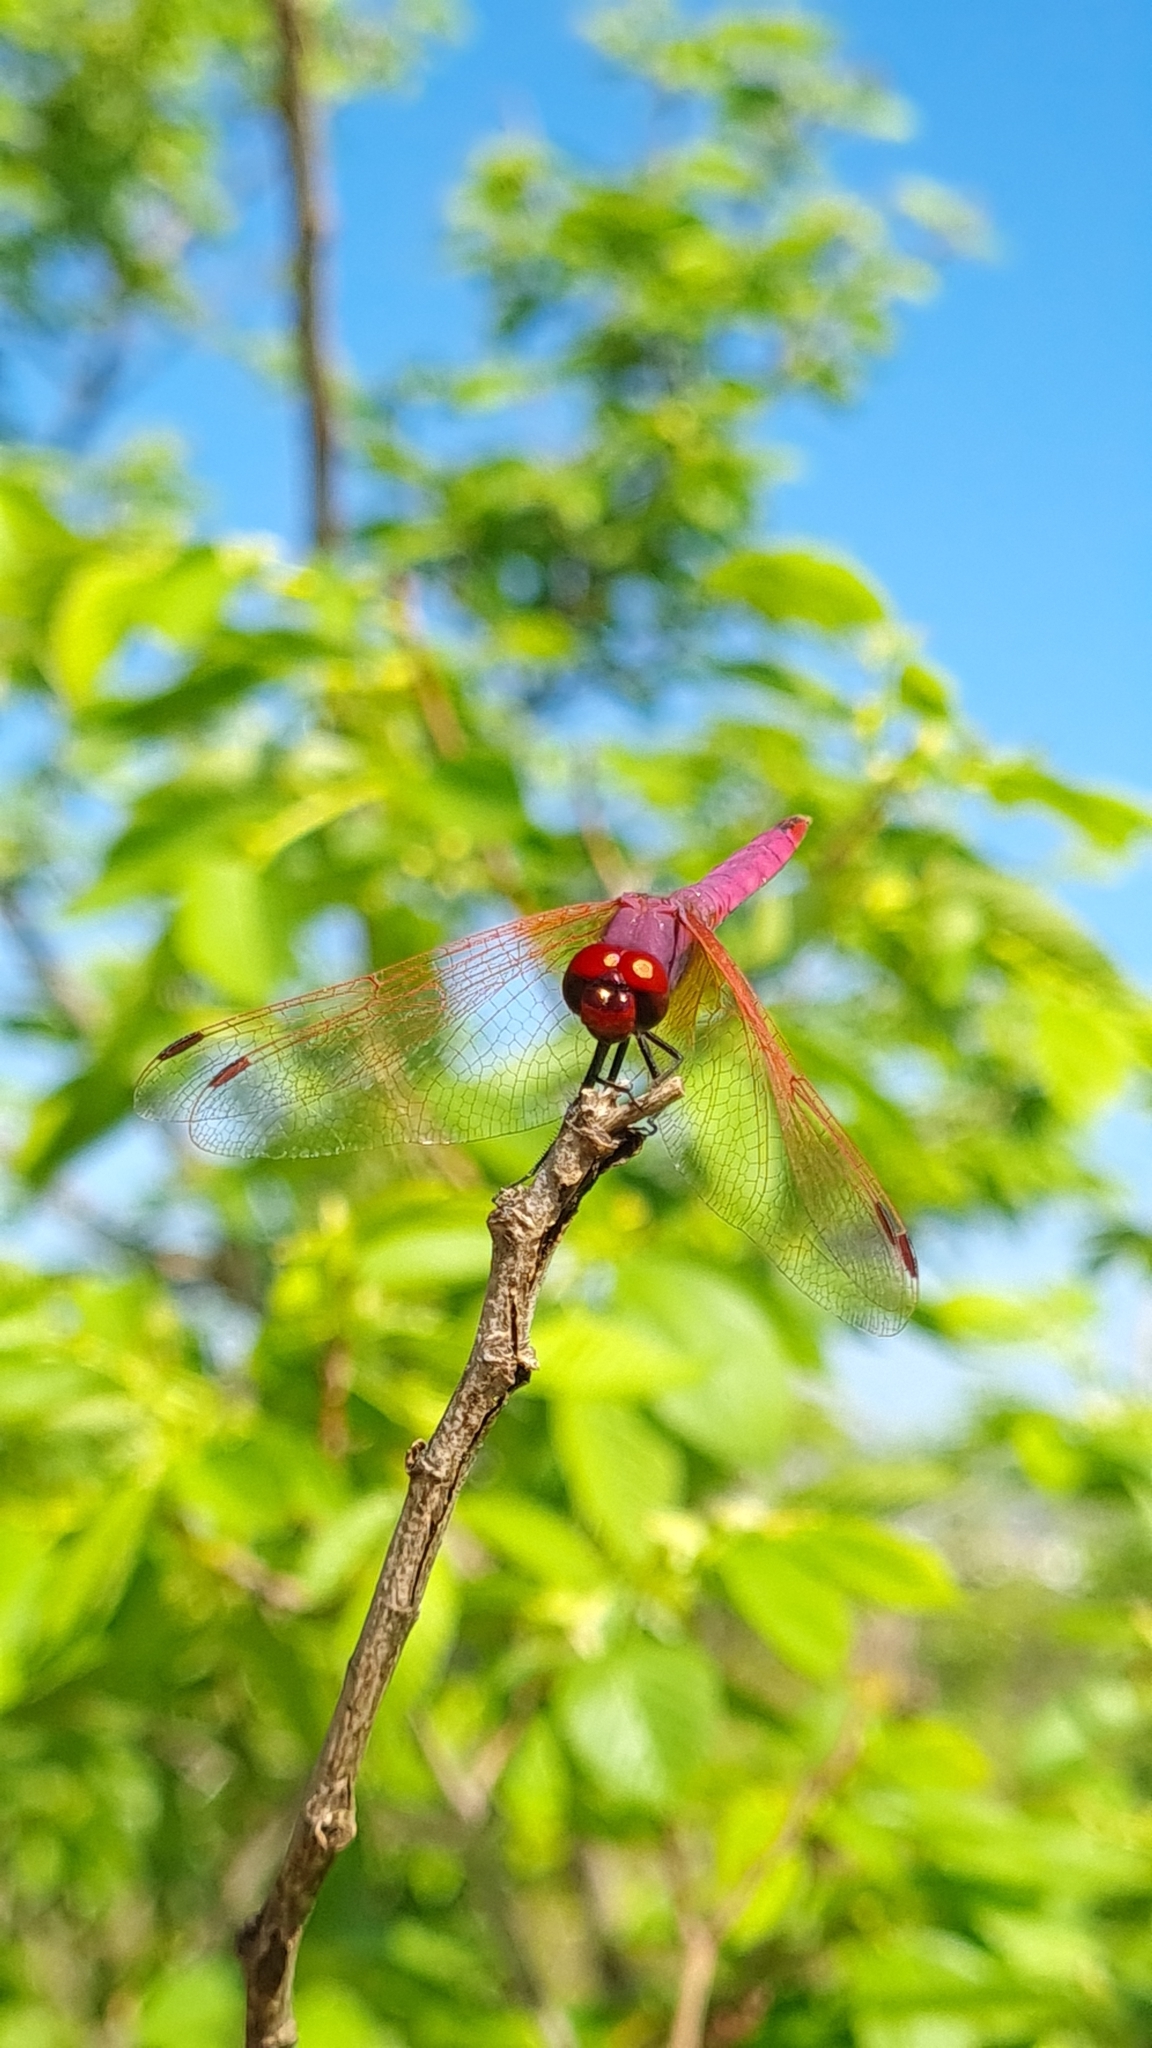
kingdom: Animalia
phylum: Arthropoda
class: Insecta
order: Odonata
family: Libellulidae
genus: Trithemis
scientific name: Trithemis annulata
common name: Violet dropwing
